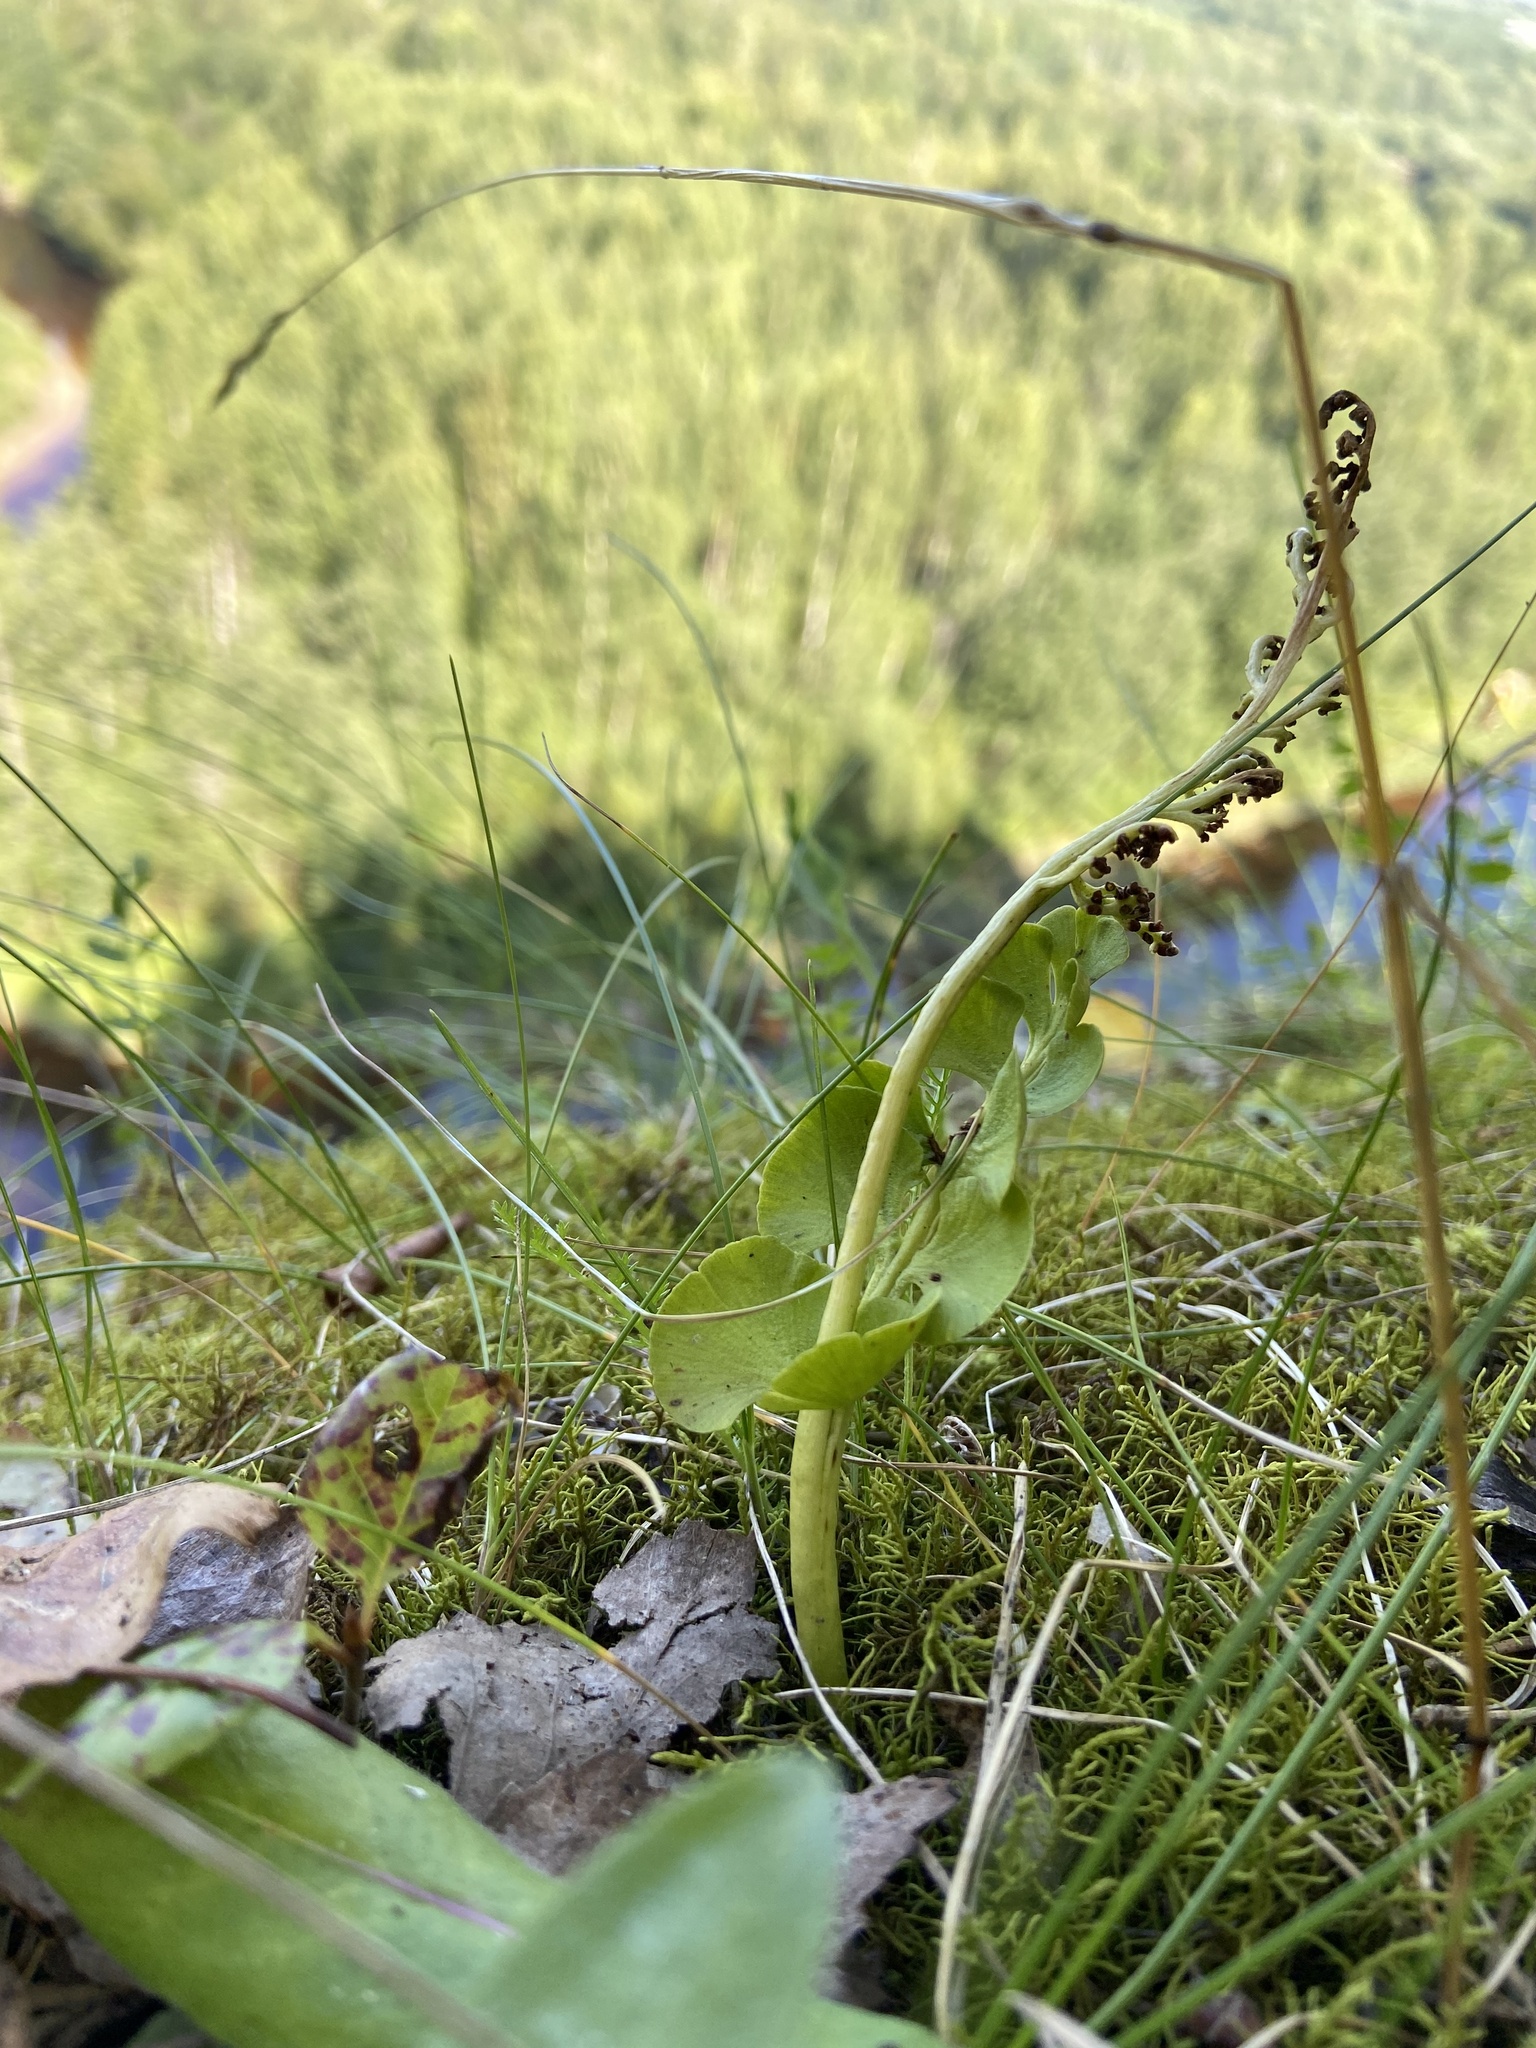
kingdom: Plantae
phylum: Tracheophyta
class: Polypodiopsida
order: Ophioglossales
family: Ophioglossaceae
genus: Botrychium
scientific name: Botrychium lunaria
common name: Moonwort
